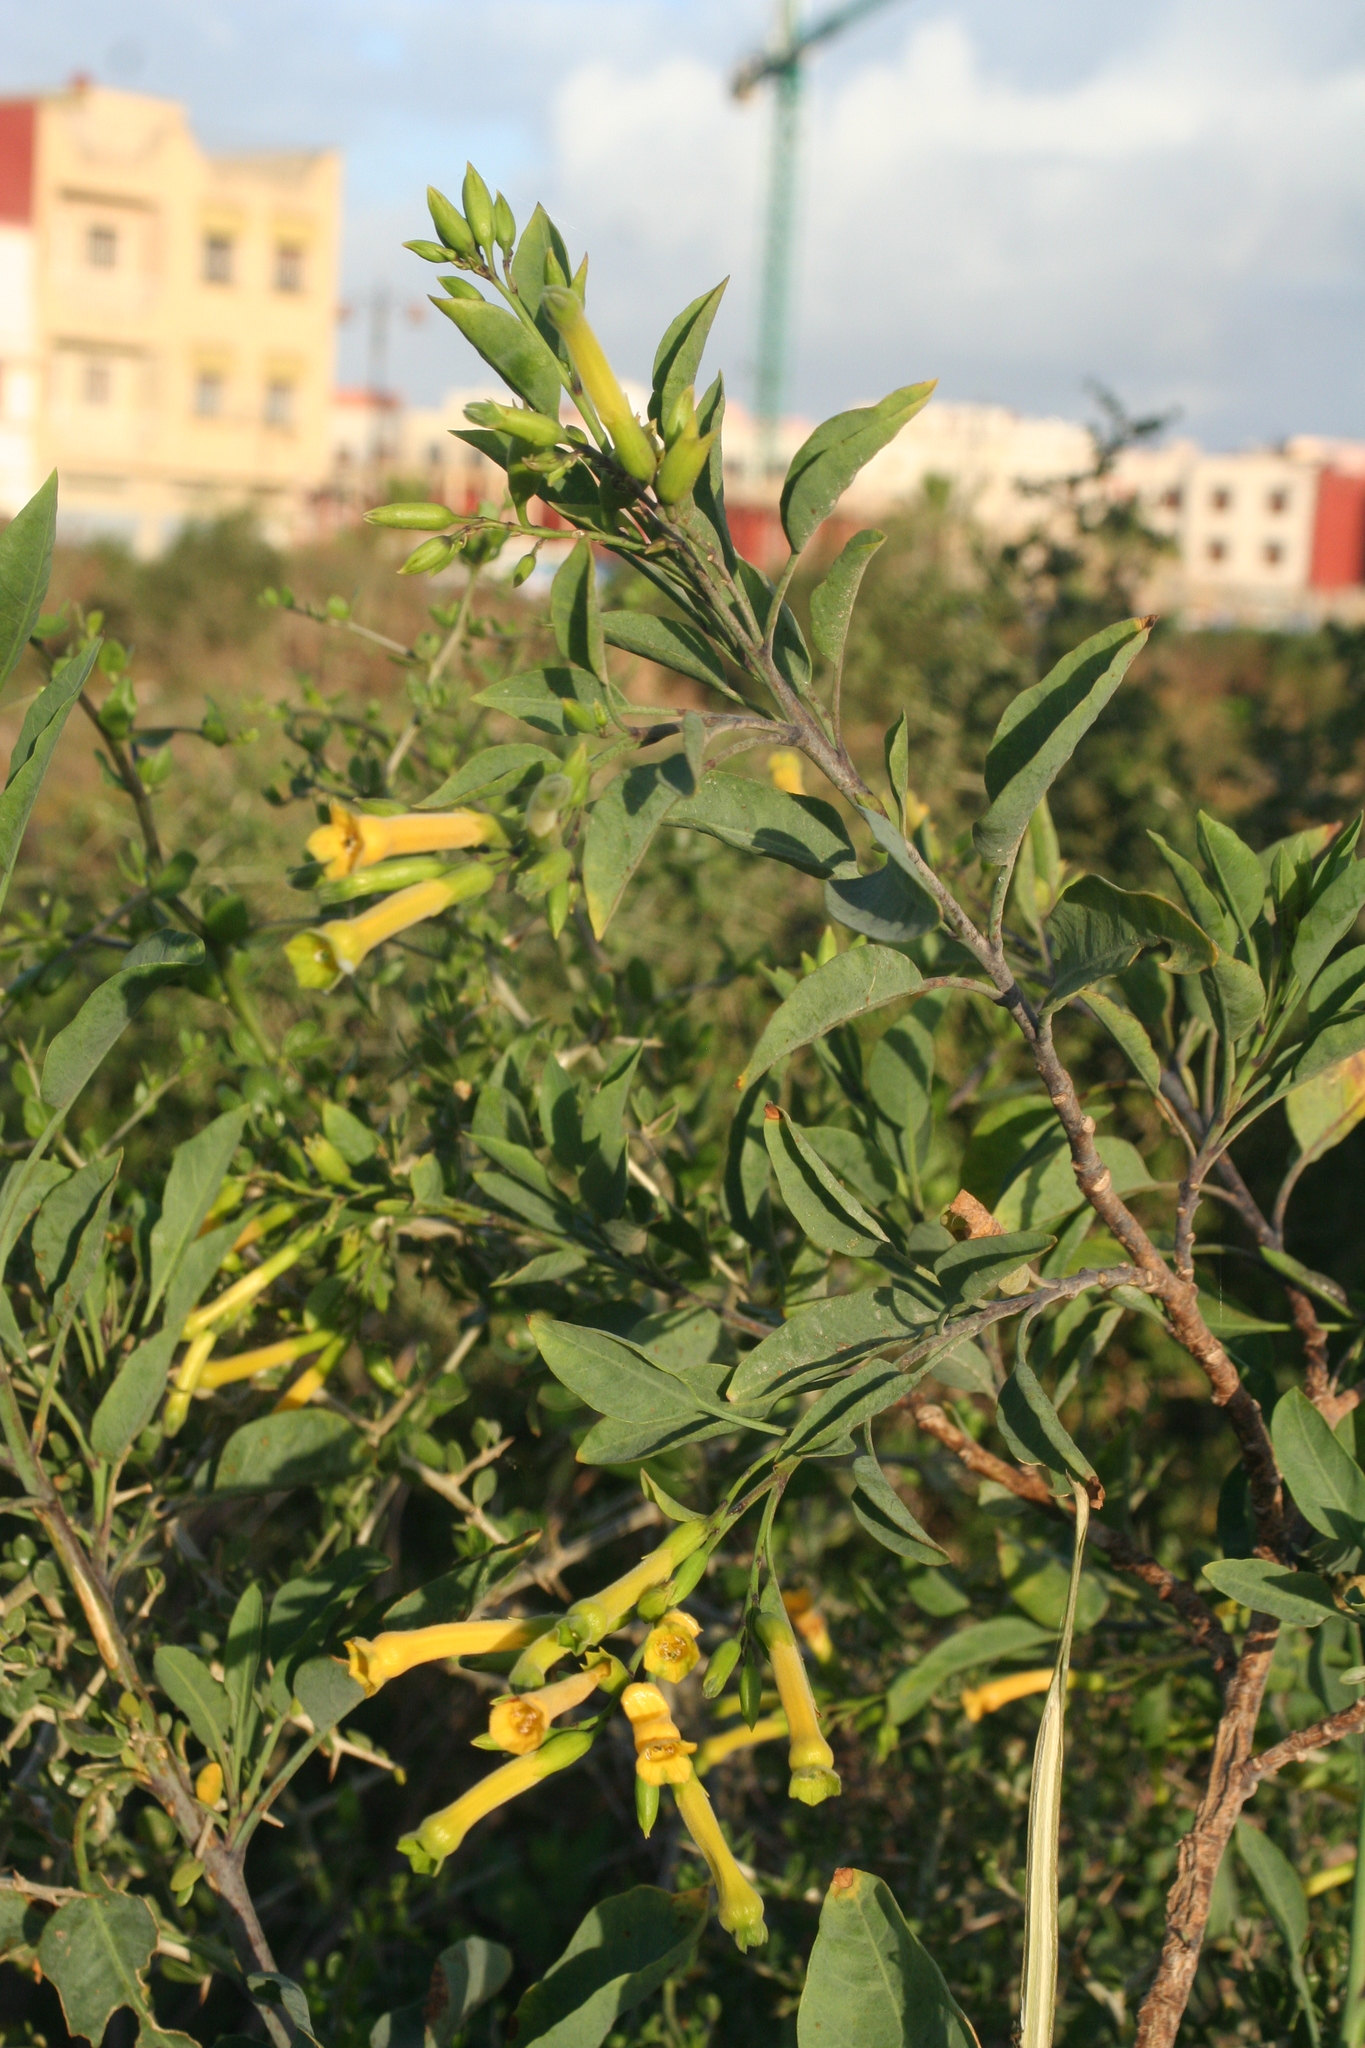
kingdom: Plantae
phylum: Tracheophyta
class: Magnoliopsida
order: Solanales
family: Solanaceae
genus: Nicotiana
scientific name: Nicotiana glauca
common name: Tree tobacco
